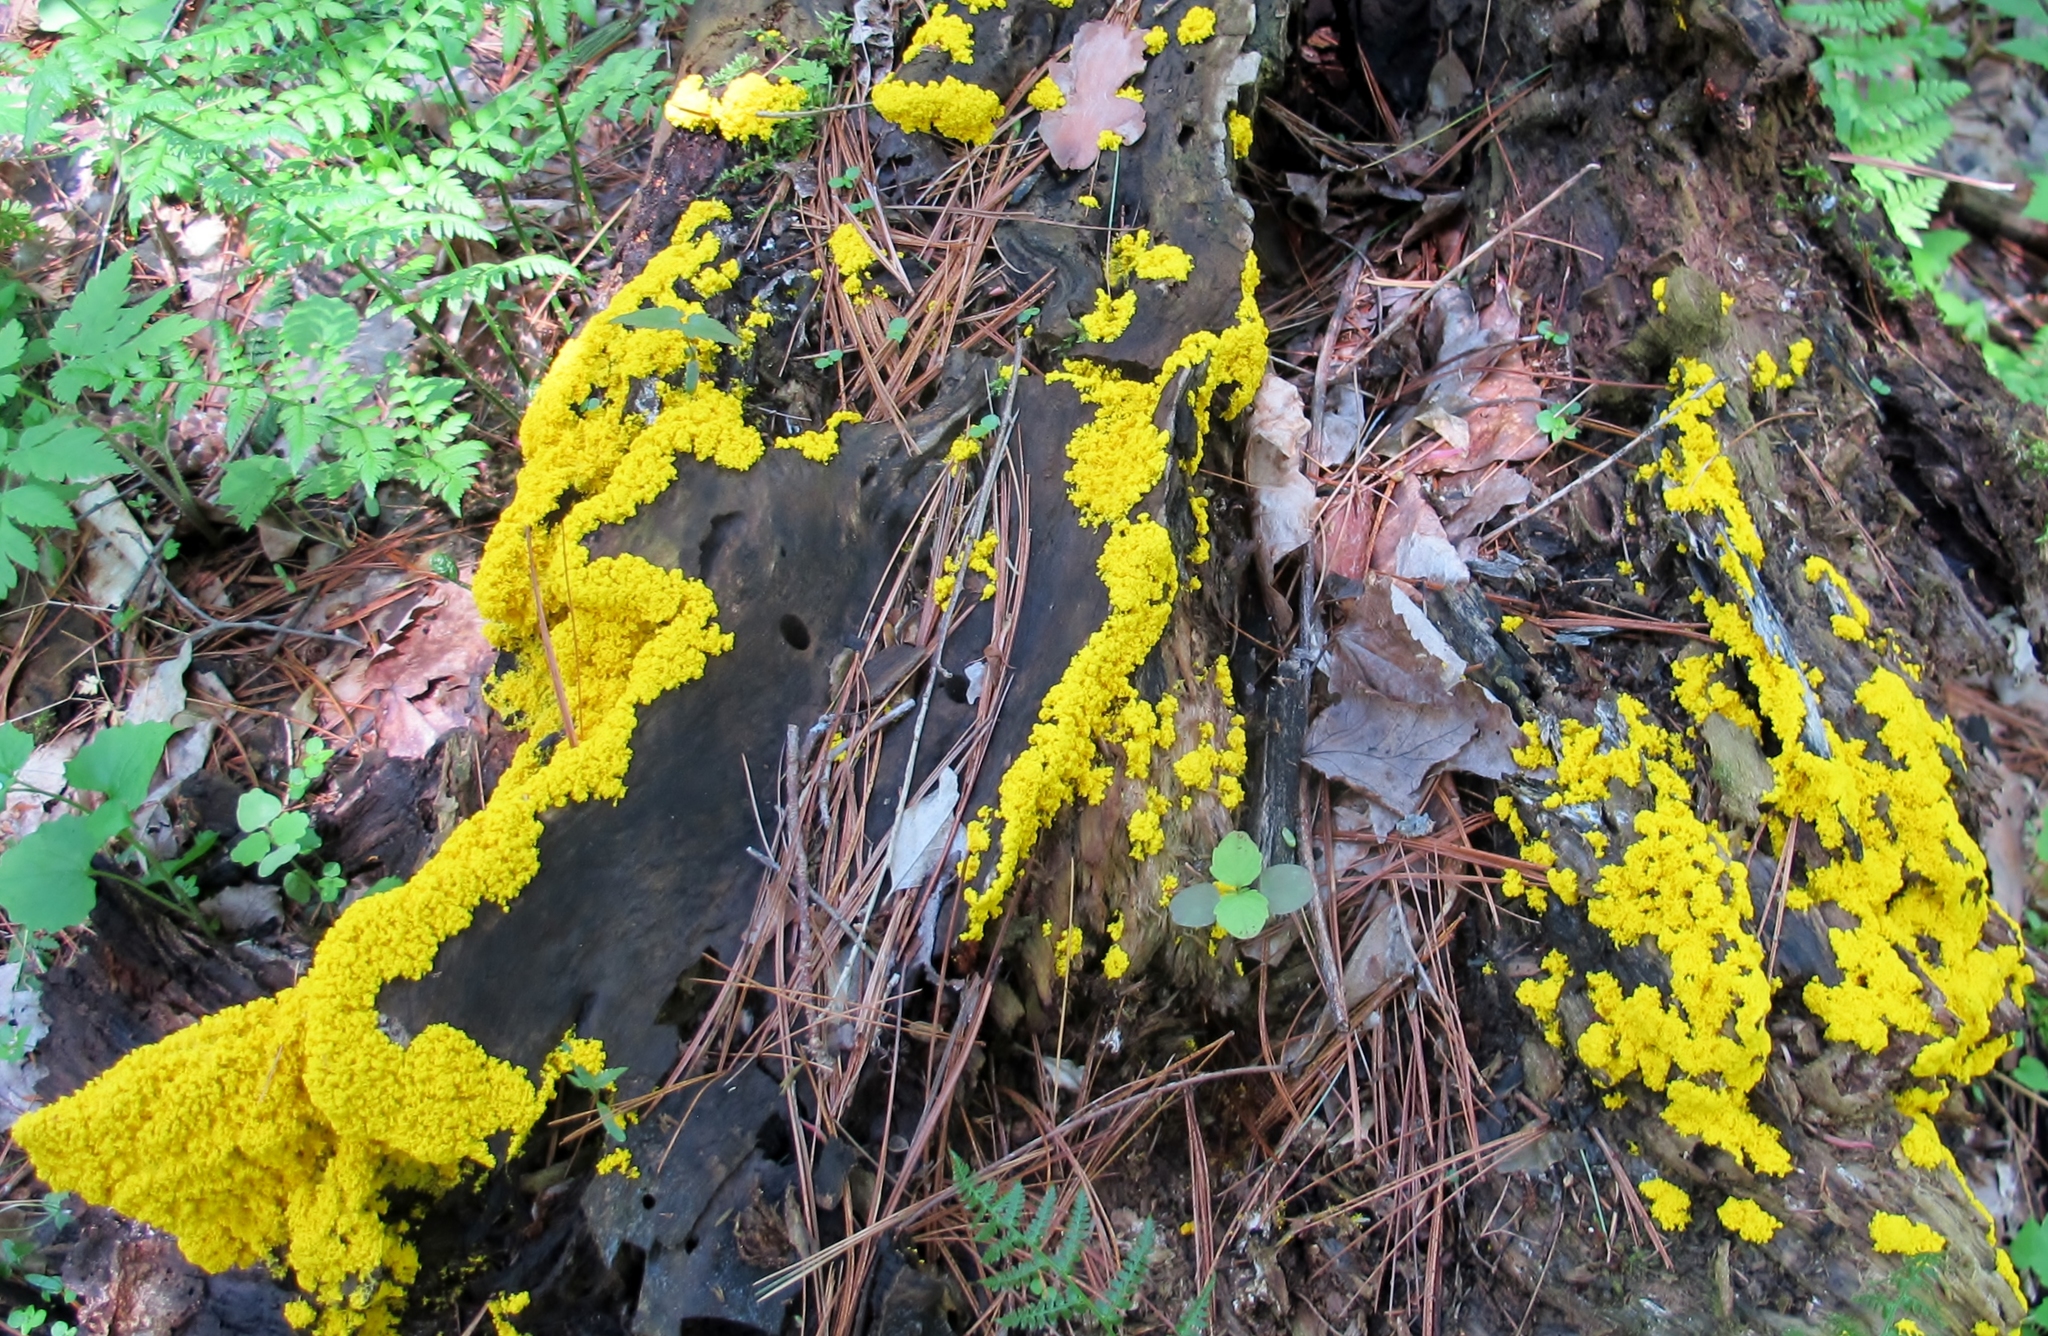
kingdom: Protozoa
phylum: Mycetozoa
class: Myxomycetes
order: Physarales
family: Physaraceae
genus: Fuligo
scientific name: Fuligo septica
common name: Dog vomit slime mold
